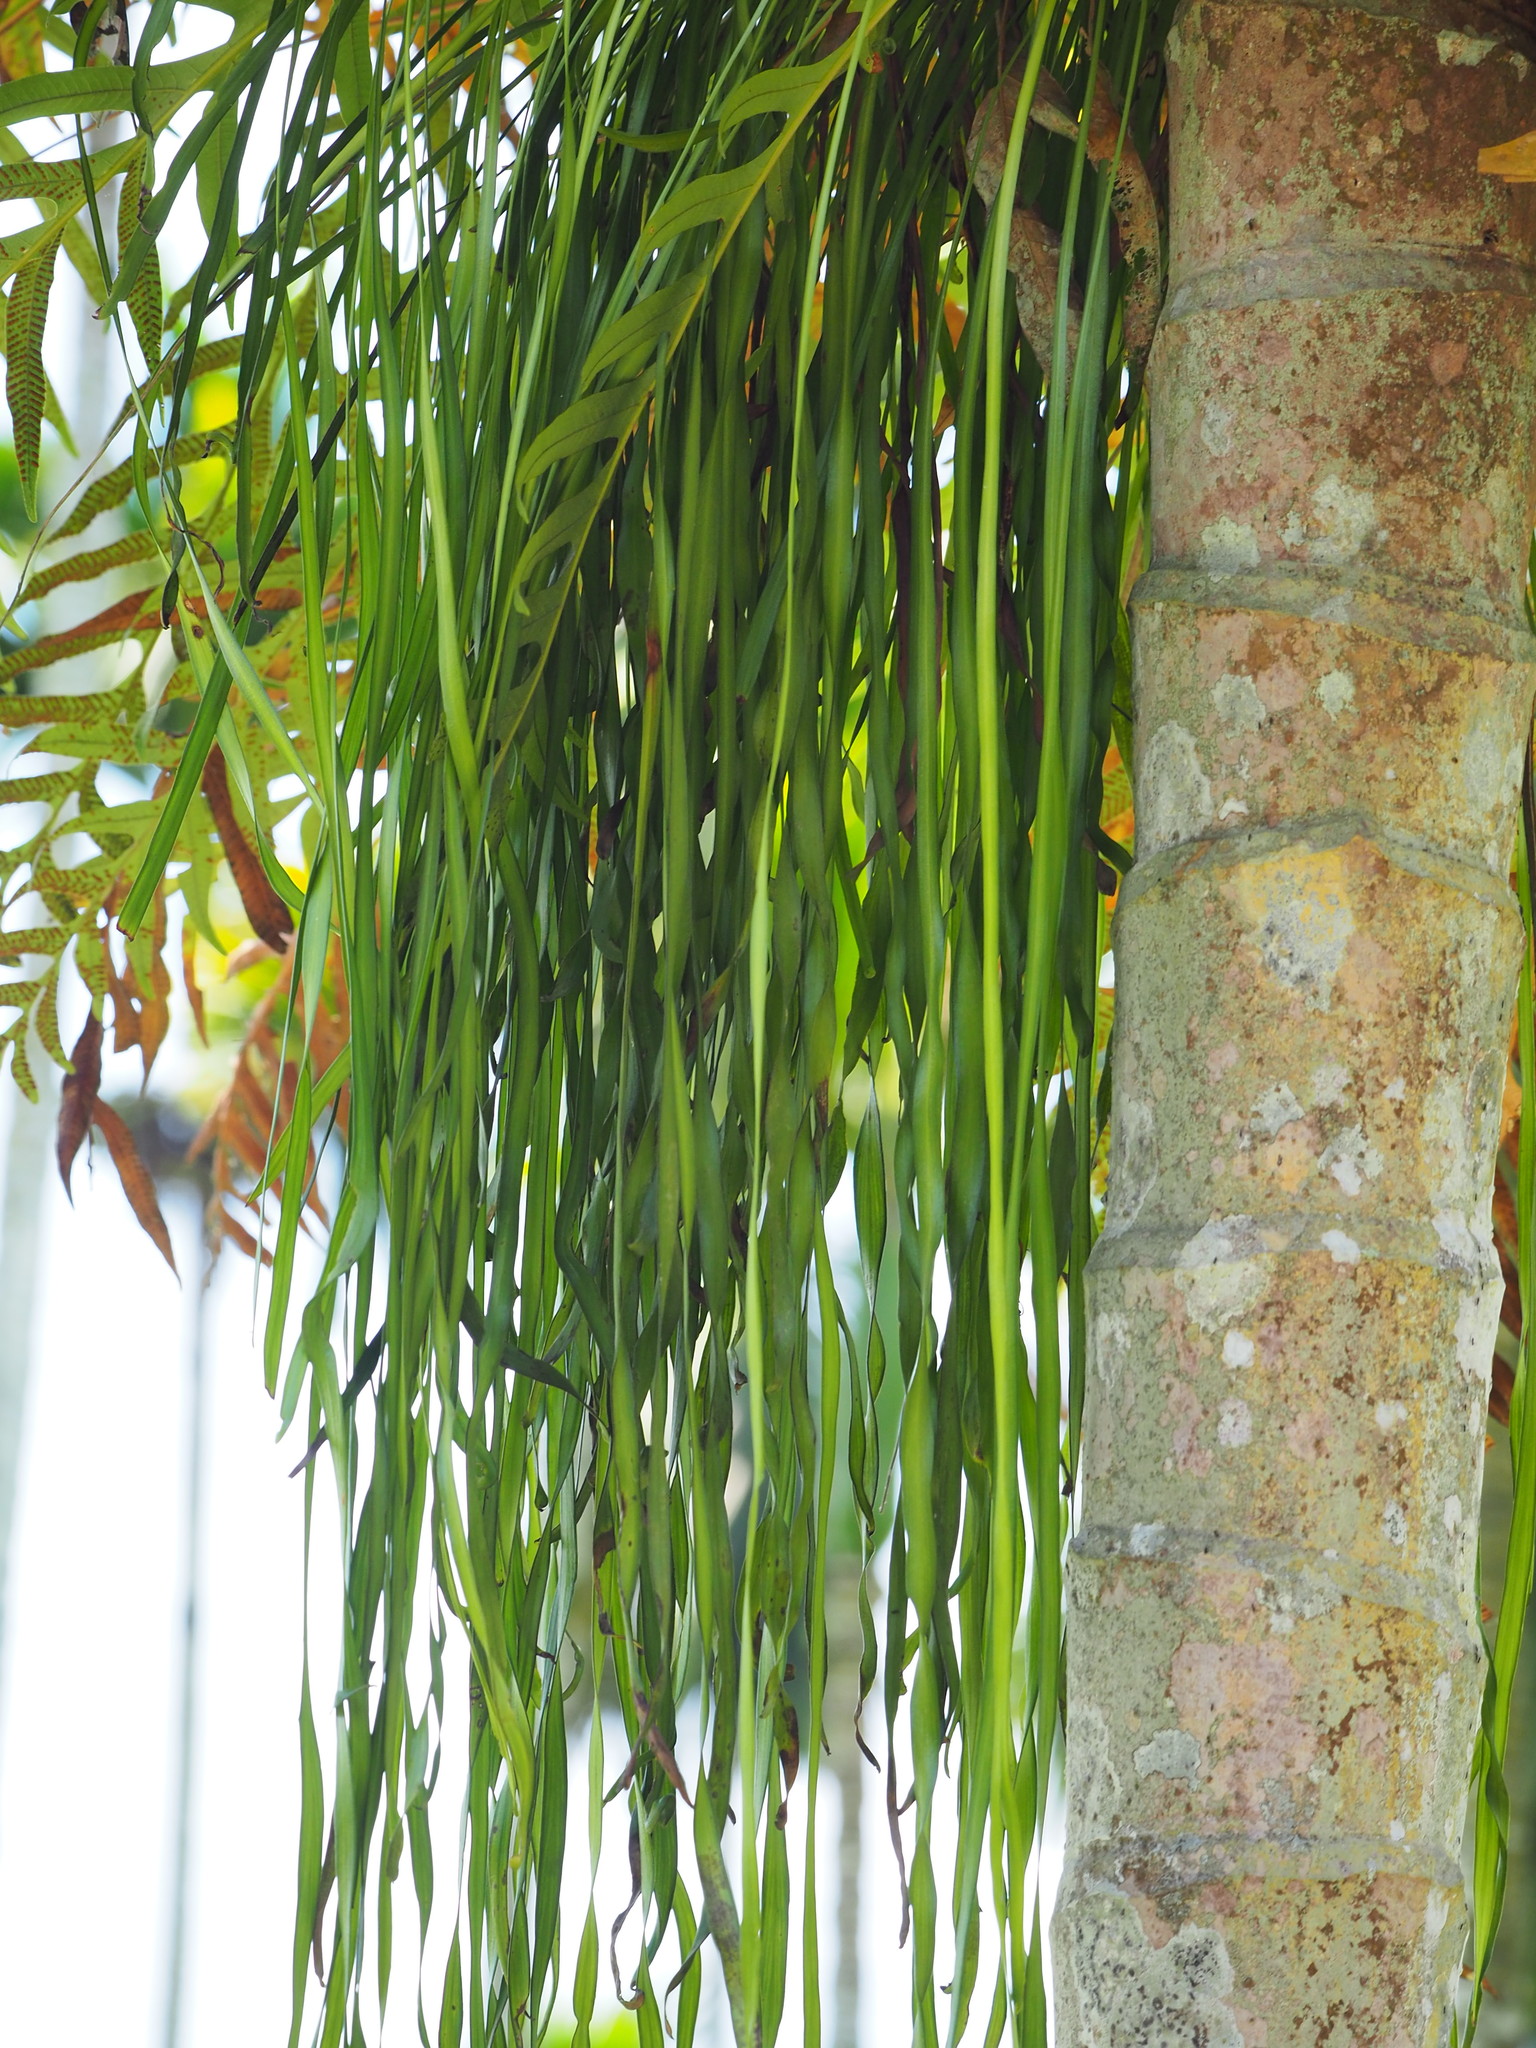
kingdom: Plantae
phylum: Tracheophyta
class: Polypodiopsida
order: Polypodiales
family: Pteridaceae
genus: Haplopteris
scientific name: Haplopteris elongata
